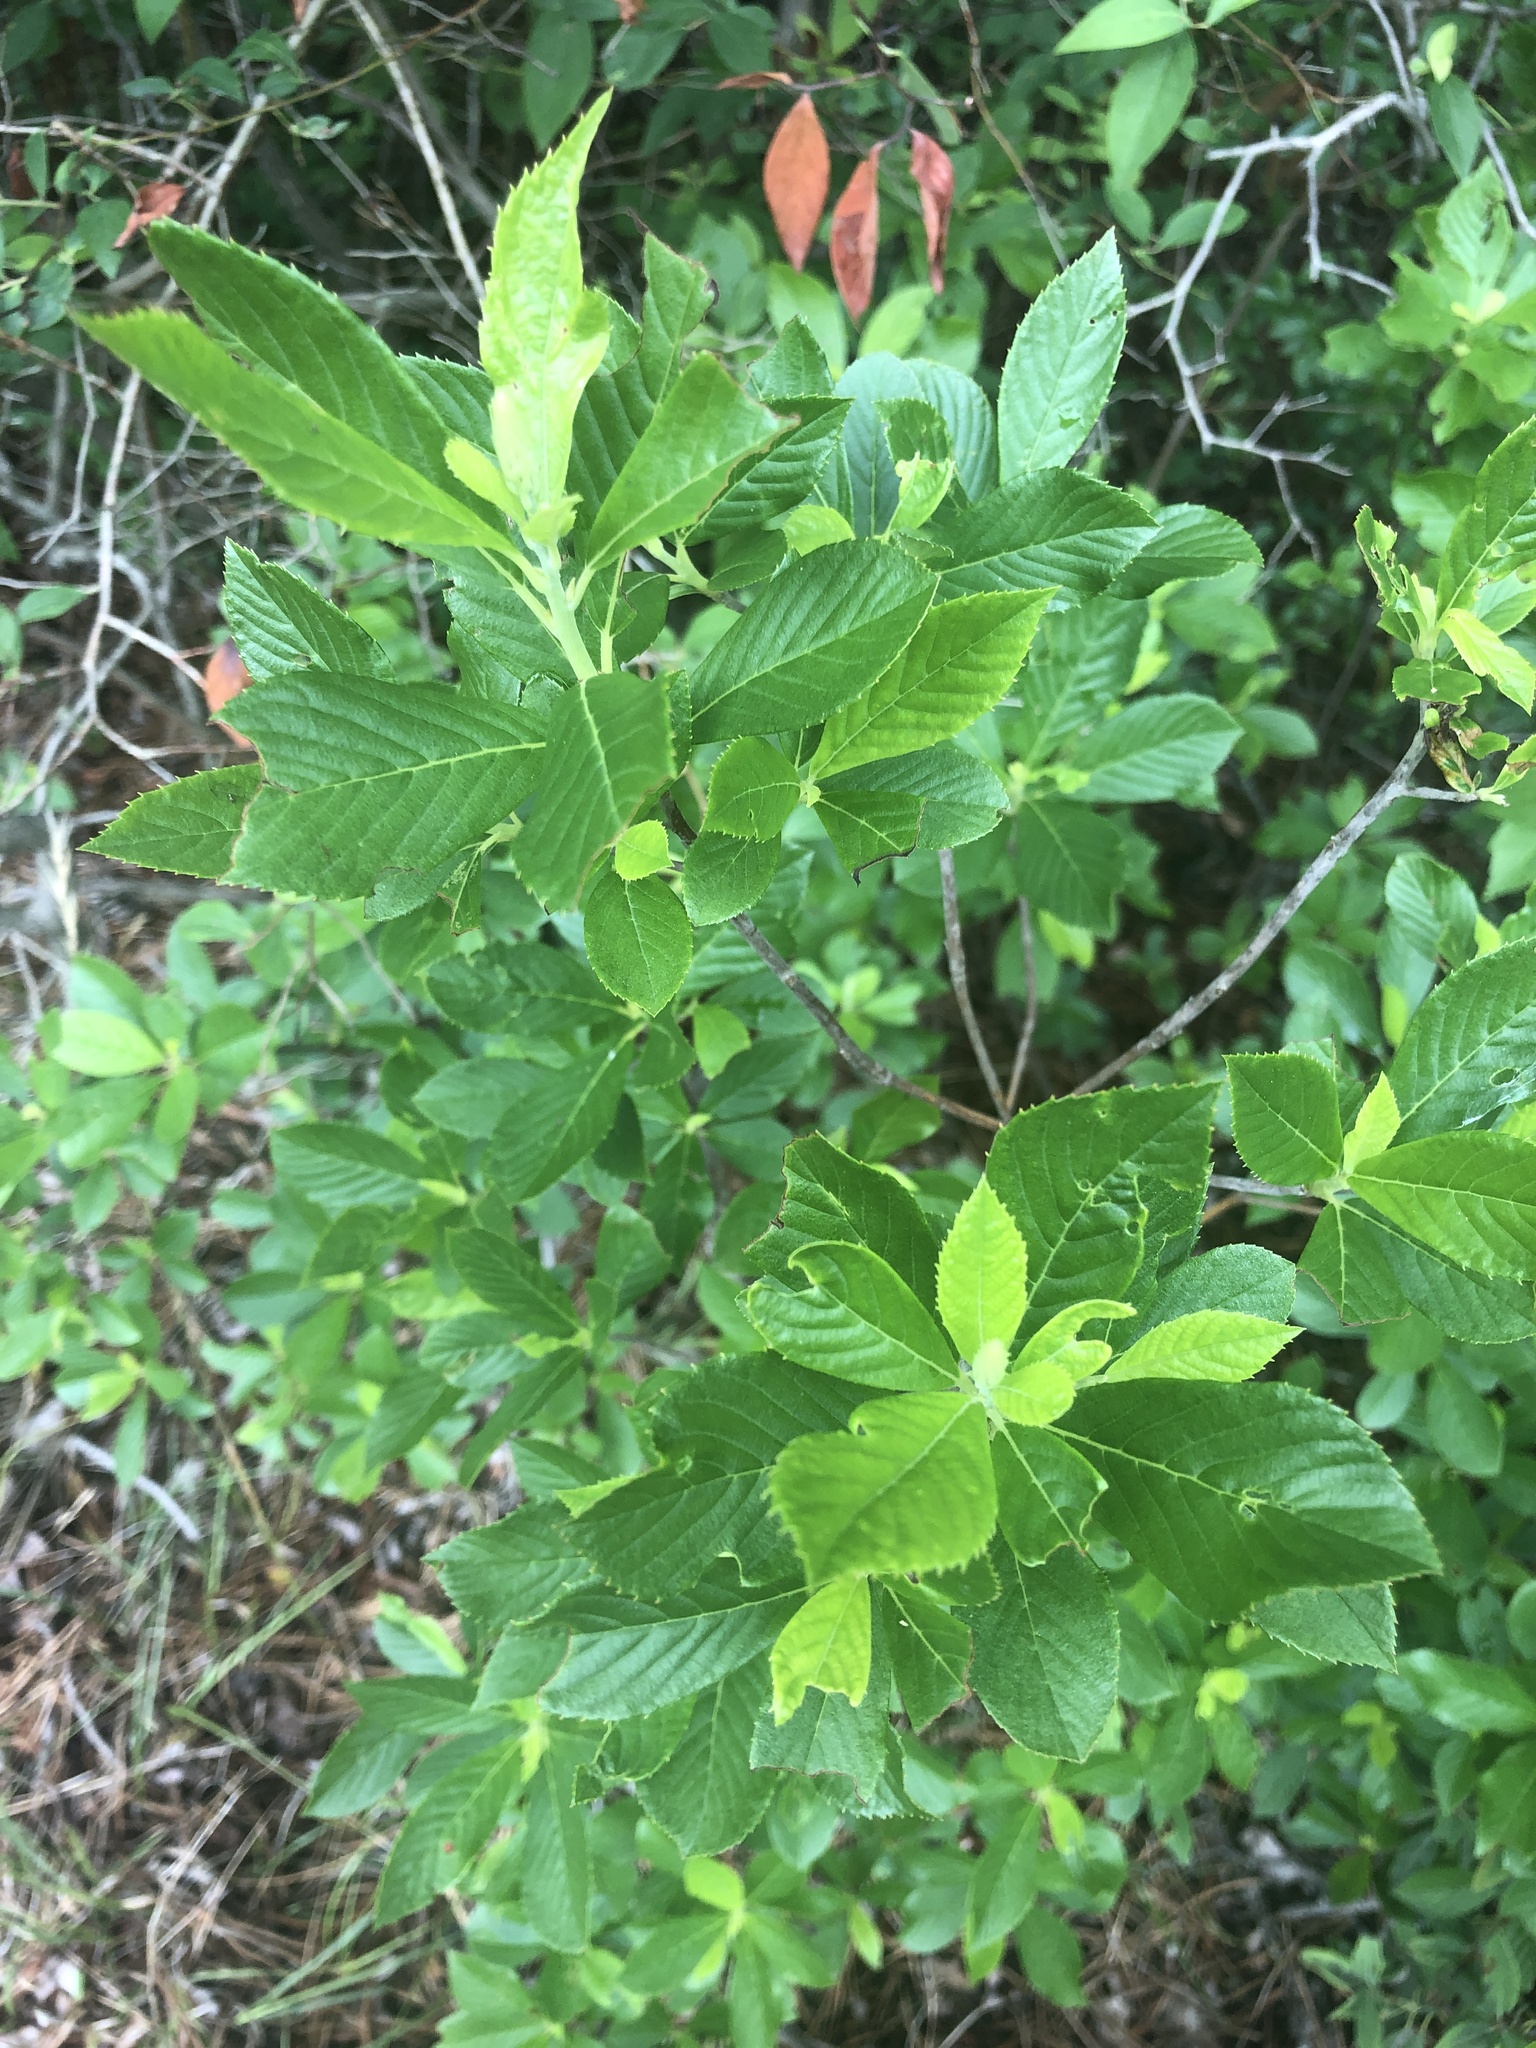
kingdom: Plantae
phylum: Tracheophyta
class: Magnoliopsida
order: Ericales
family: Clethraceae
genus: Clethra
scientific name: Clethra alnifolia
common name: Sweet pepperbush
